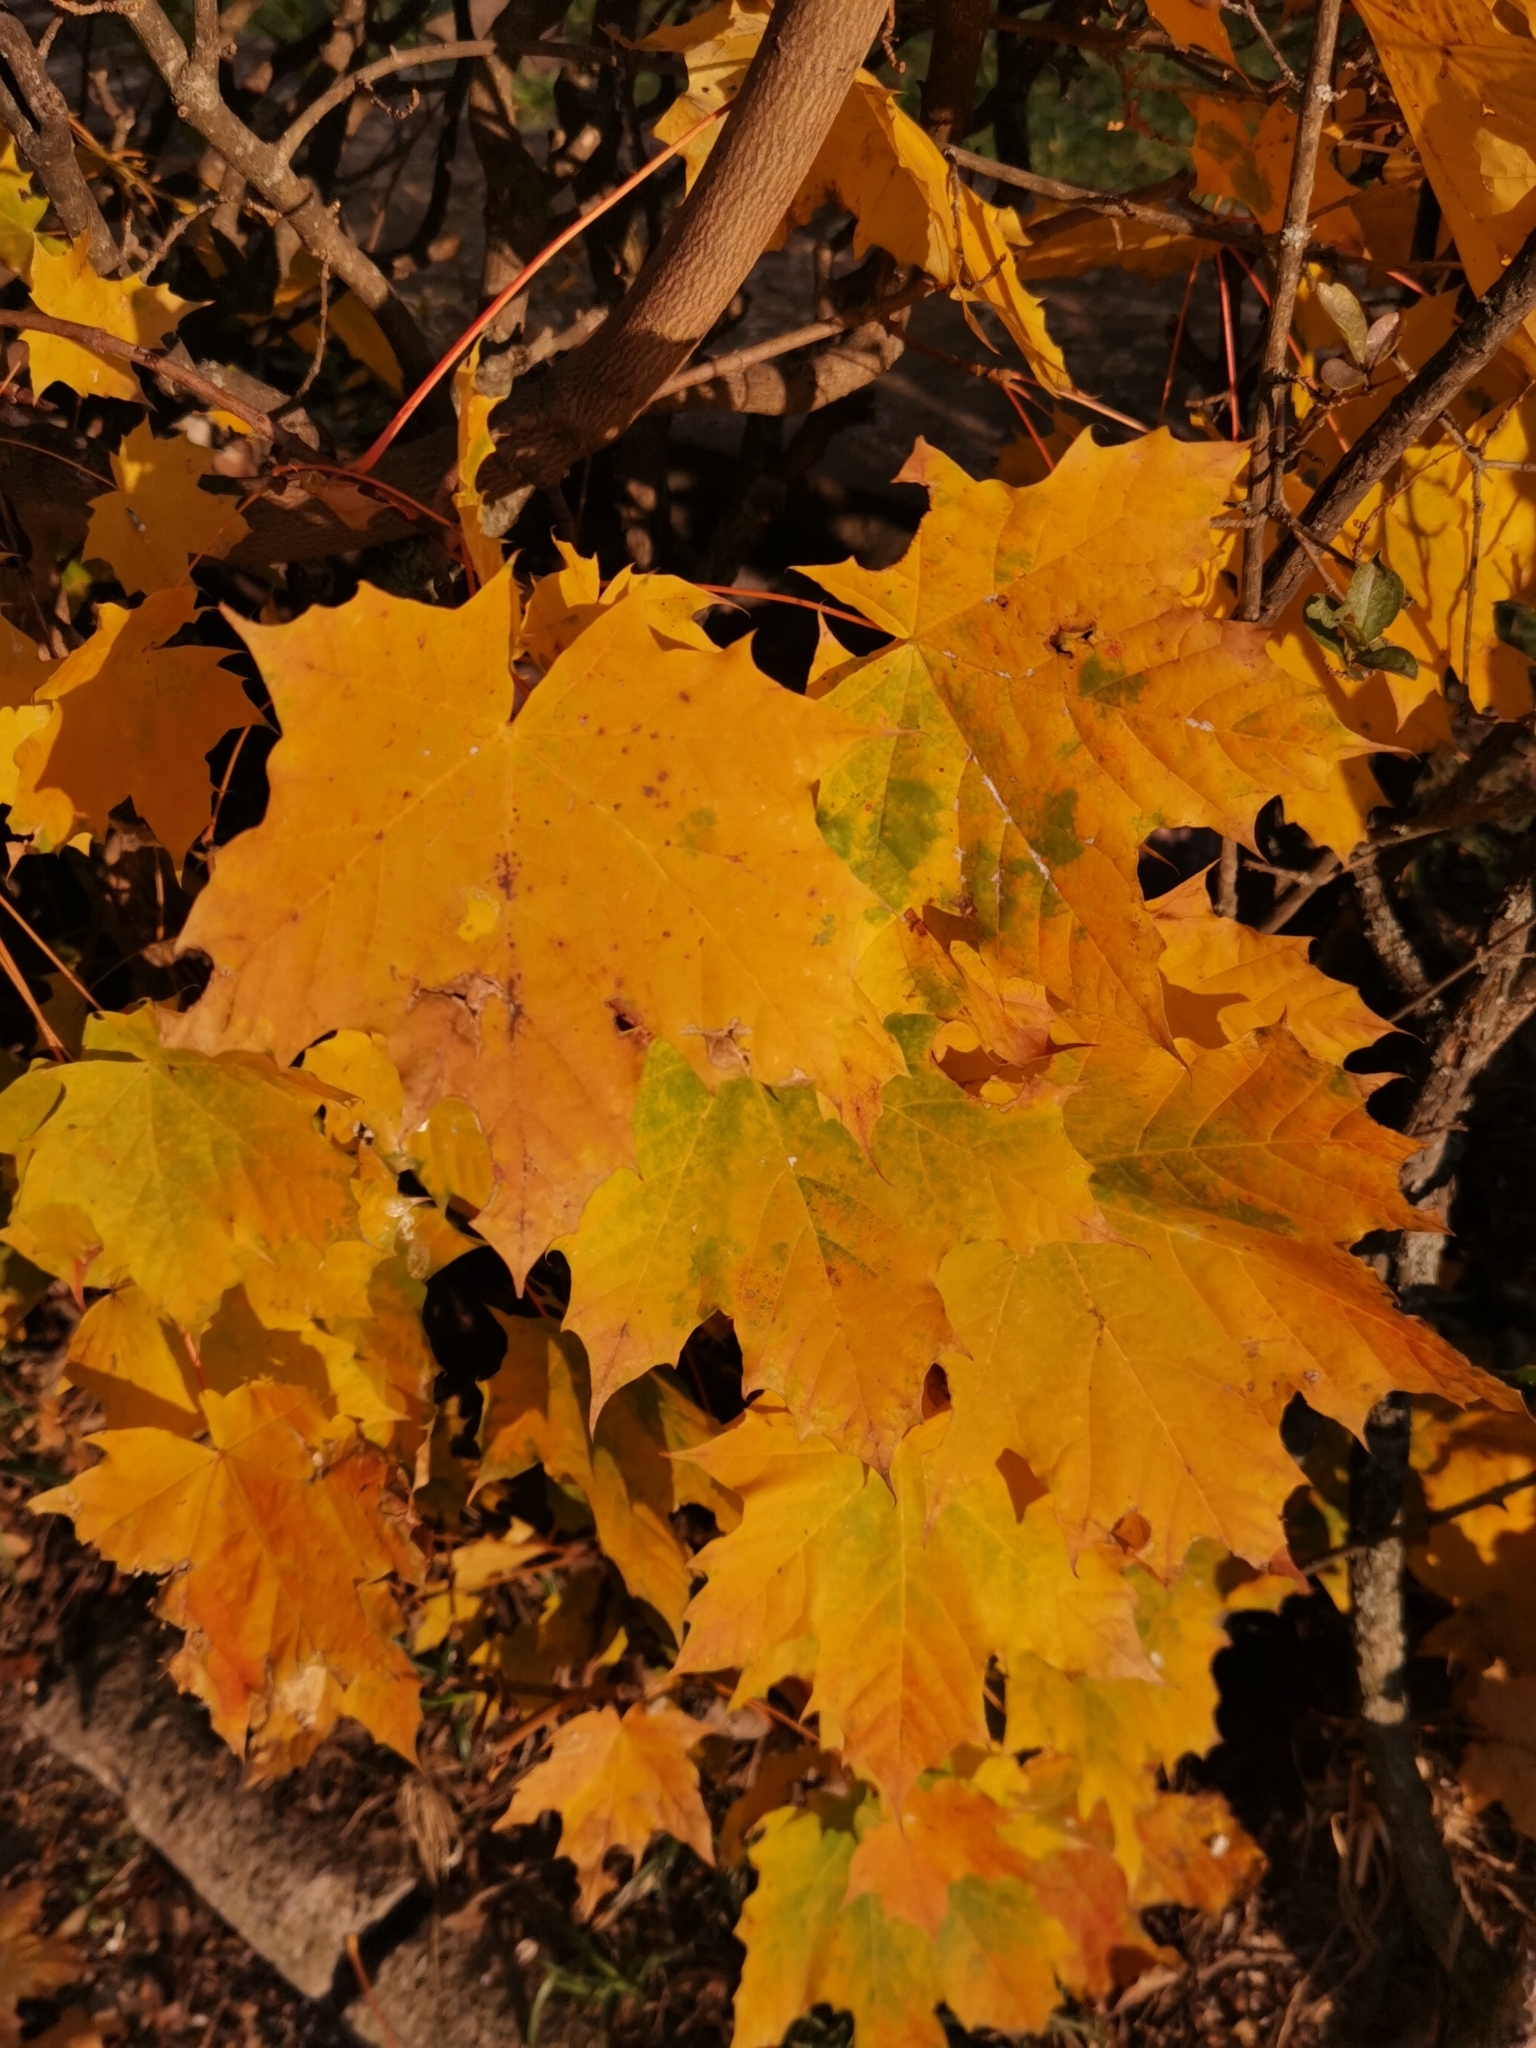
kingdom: Plantae
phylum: Tracheophyta
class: Magnoliopsida
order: Sapindales
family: Sapindaceae
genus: Acer
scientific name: Acer platanoides
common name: Norway maple
